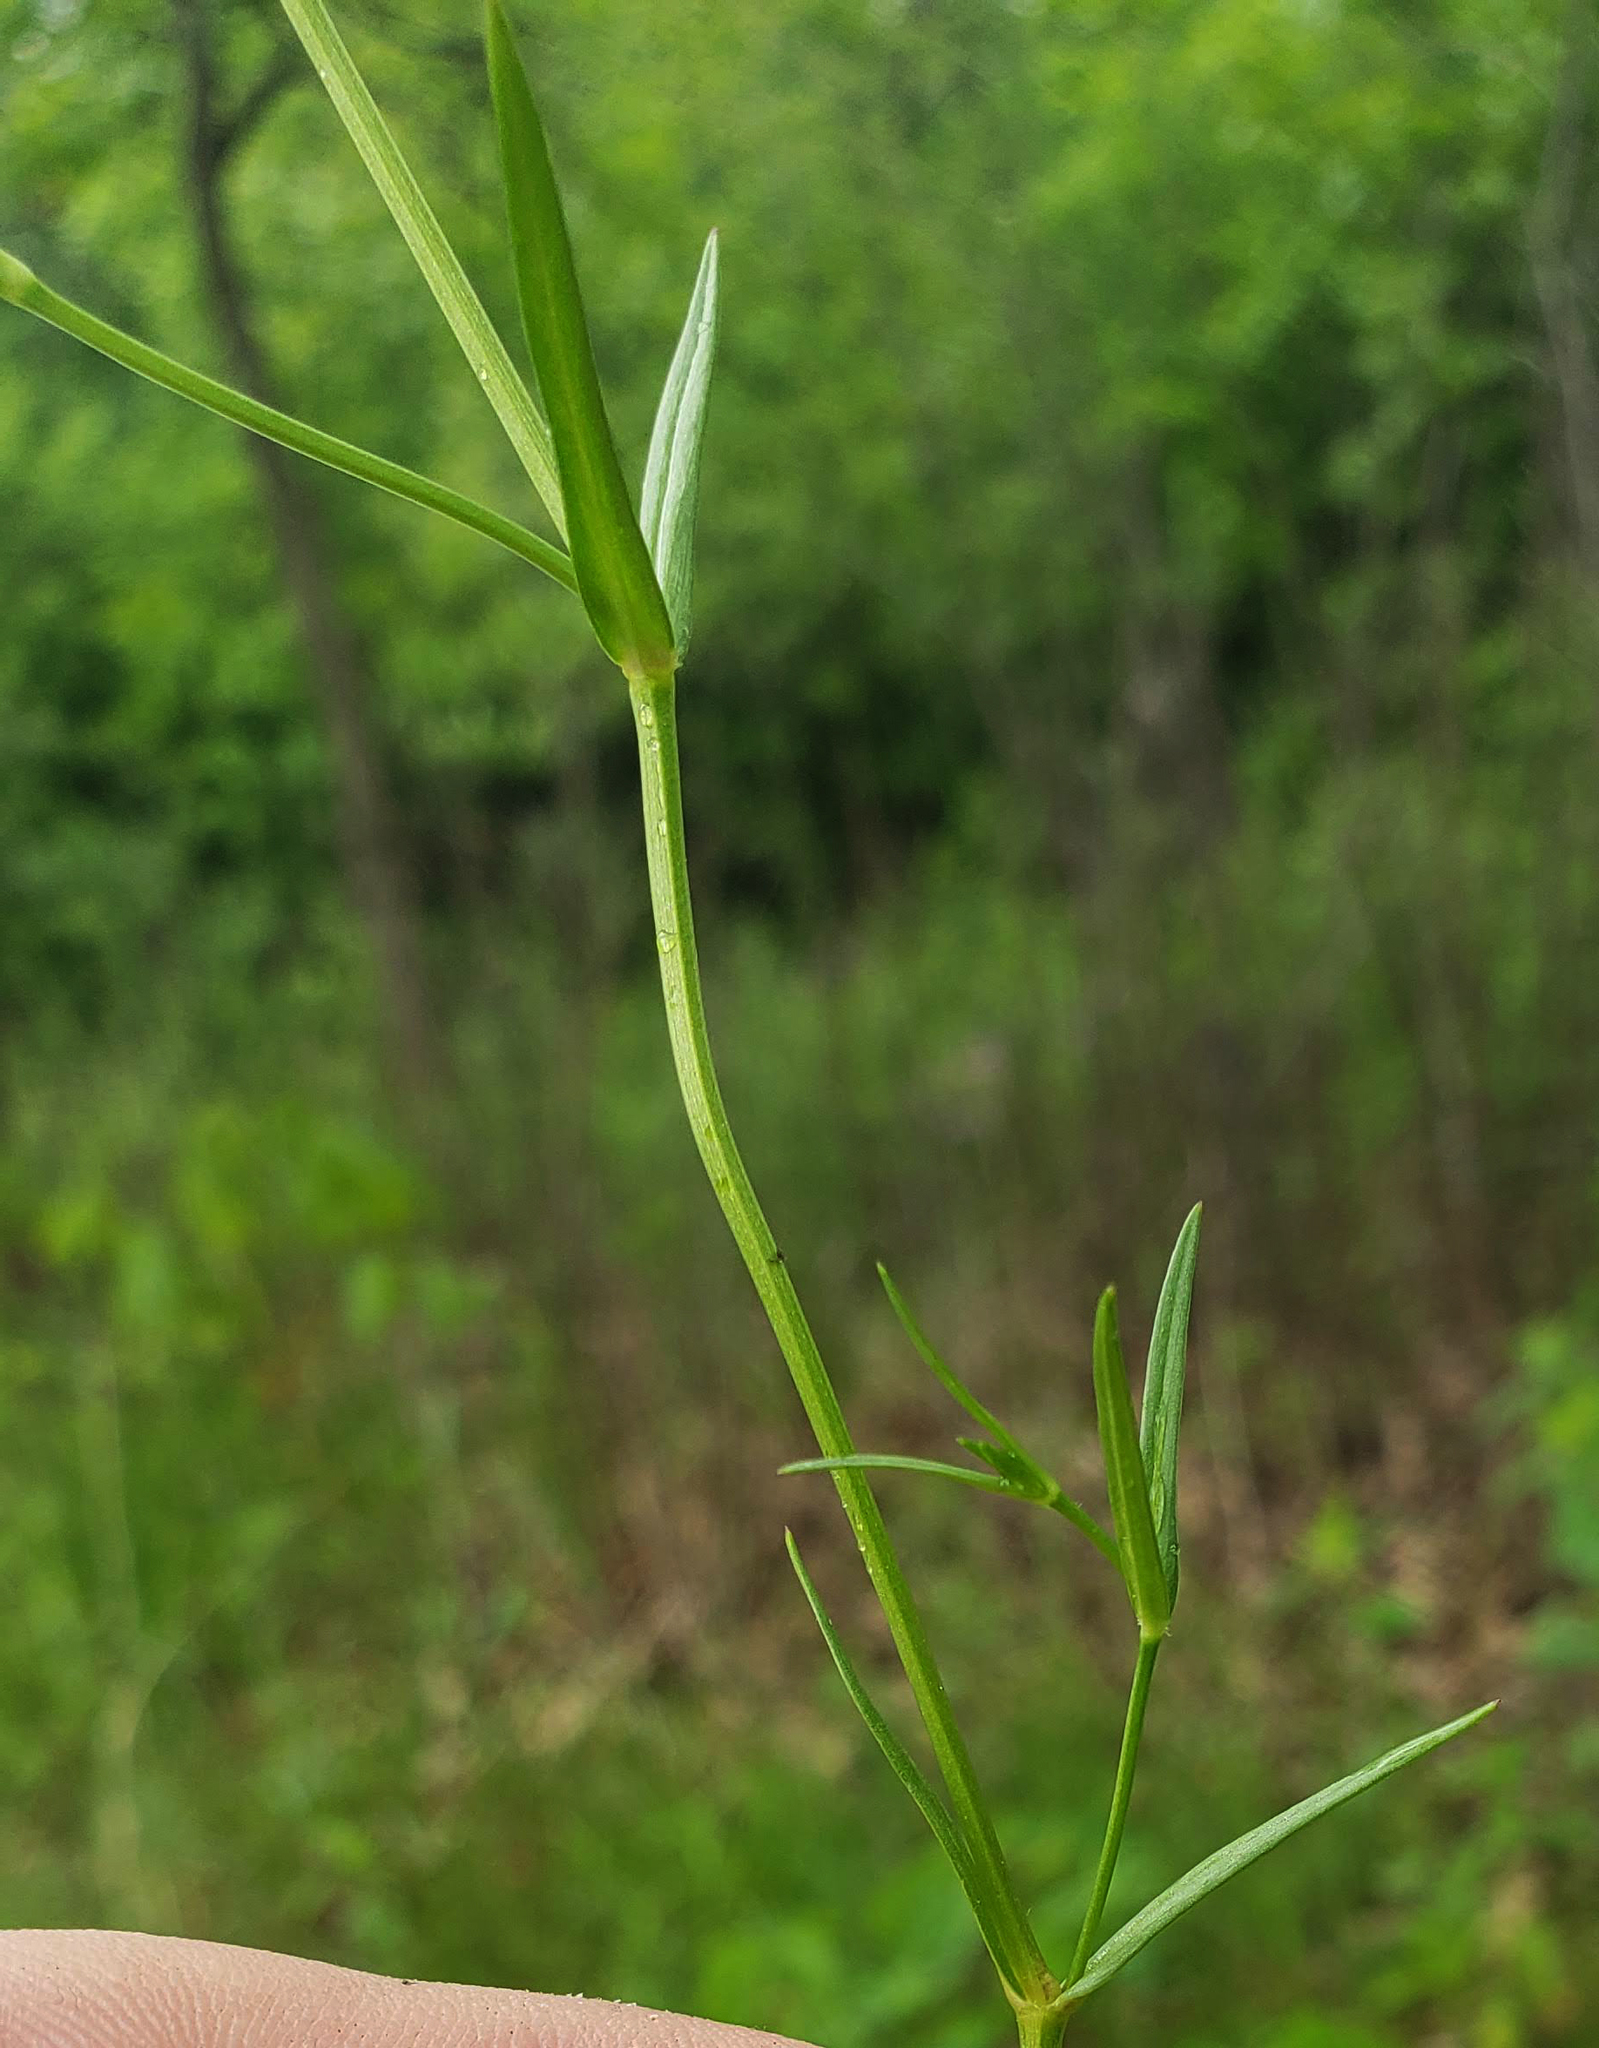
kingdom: Plantae
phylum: Tracheophyta
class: Magnoliopsida
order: Caryophyllales
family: Caryophyllaceae
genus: Stellaria
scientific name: Stellaria graminea
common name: Grass-like starwort
